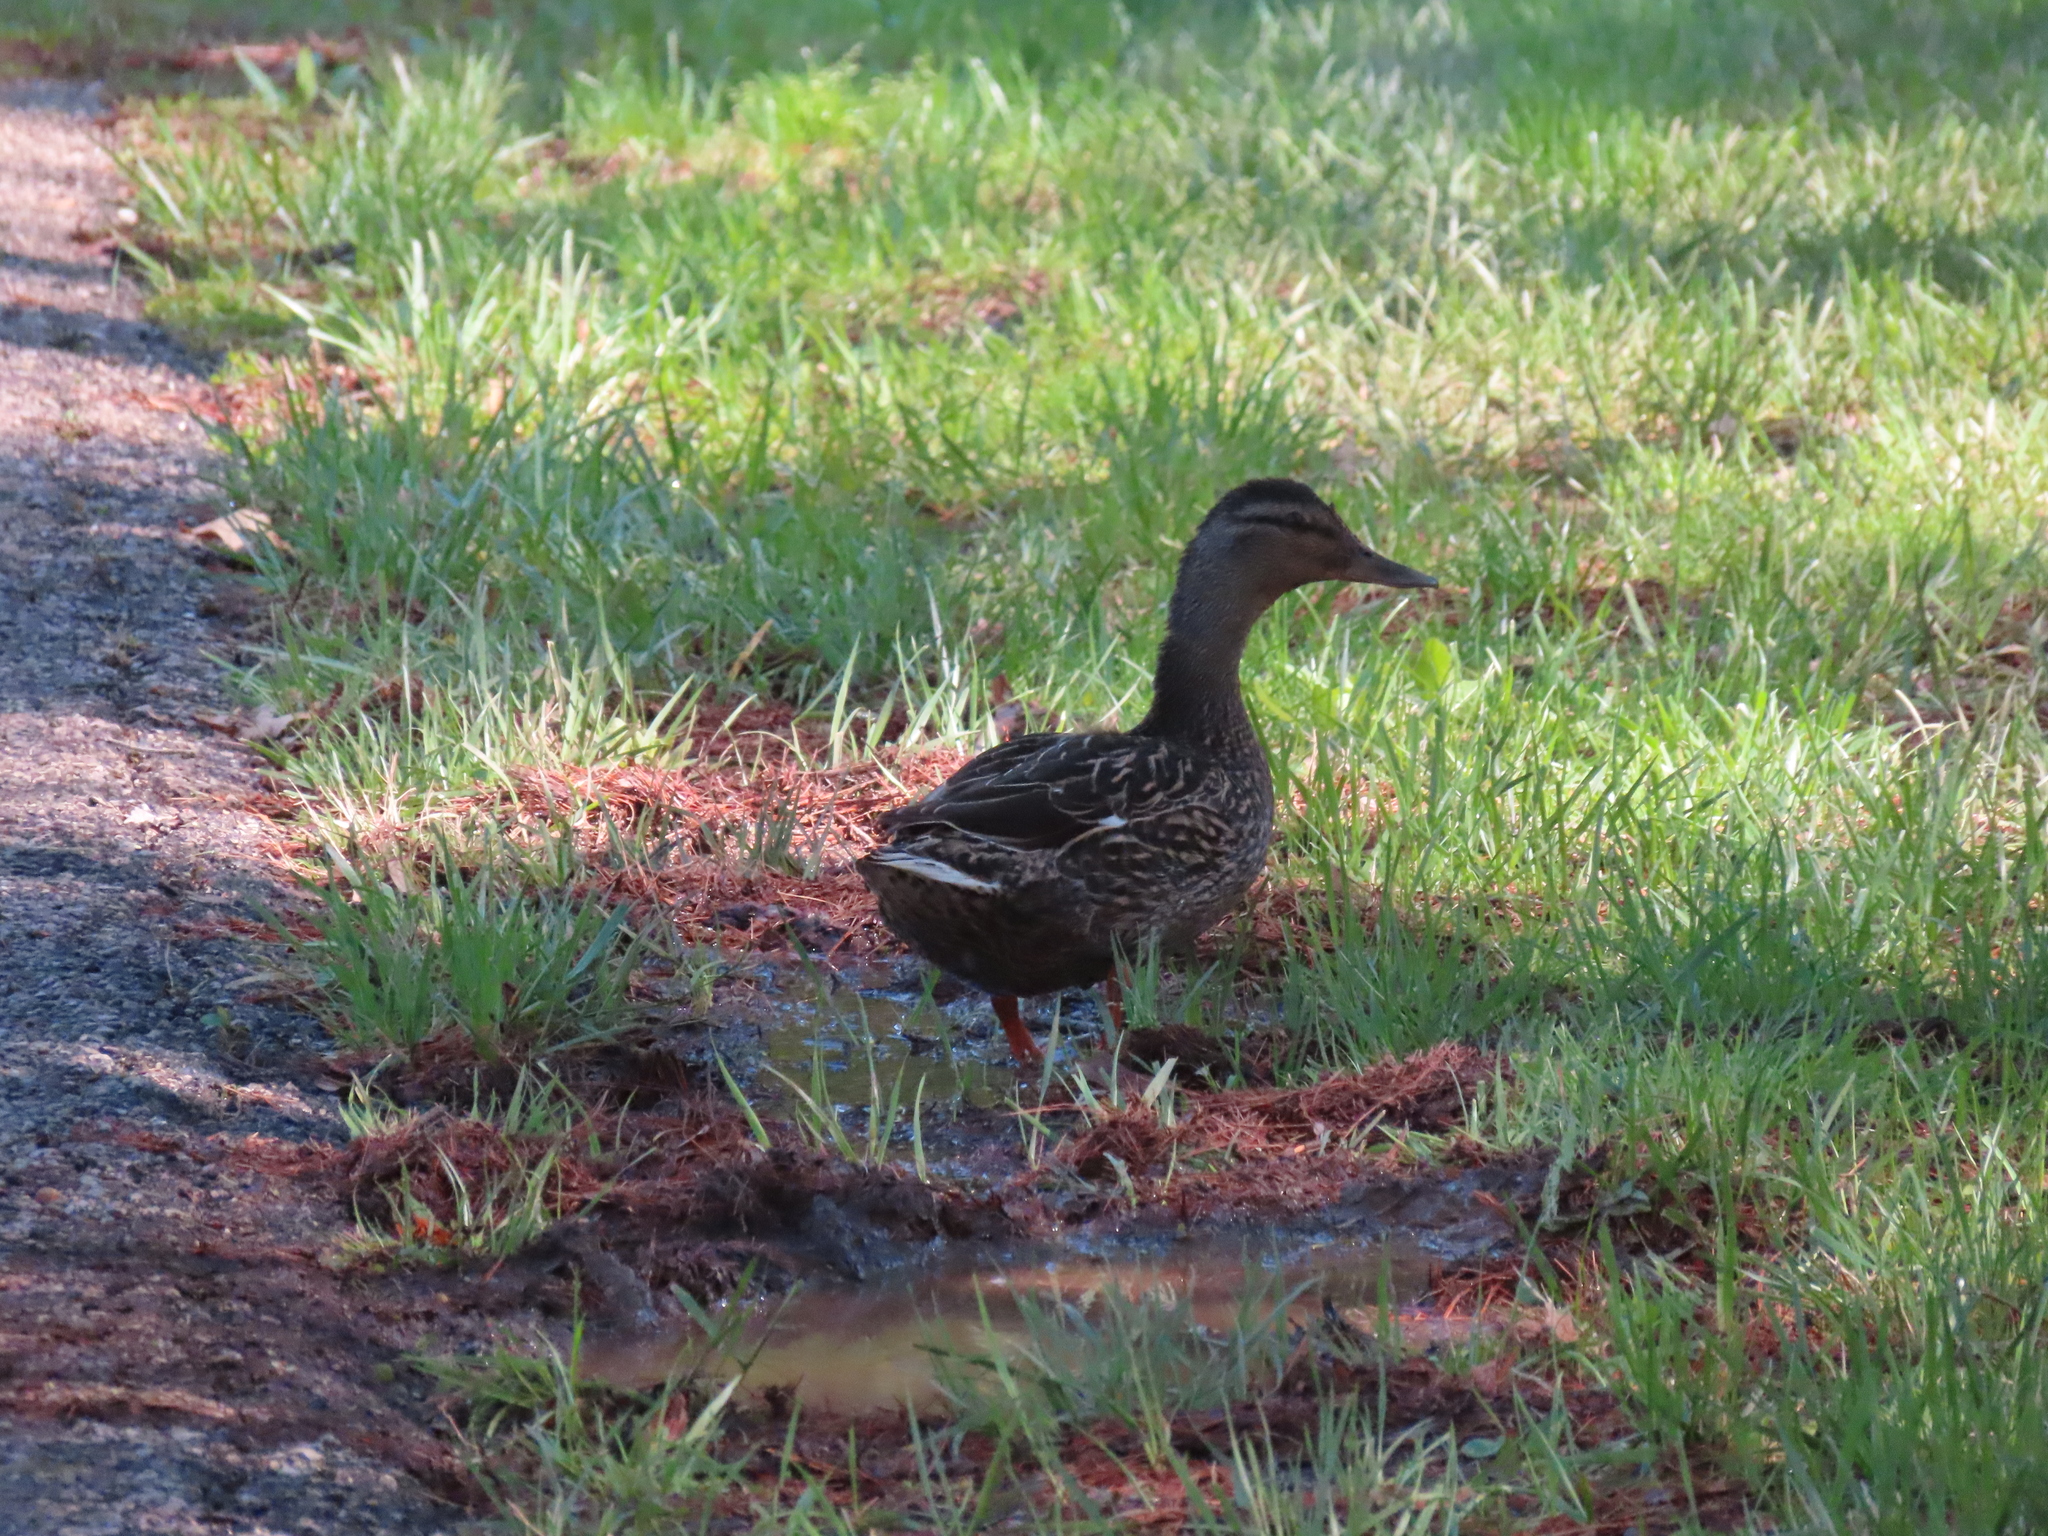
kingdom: Animalia
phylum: Chordata
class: Aves
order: Anseriformes
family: Anatidae
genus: Anas
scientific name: Anas platyrhynchos
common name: Mallard
